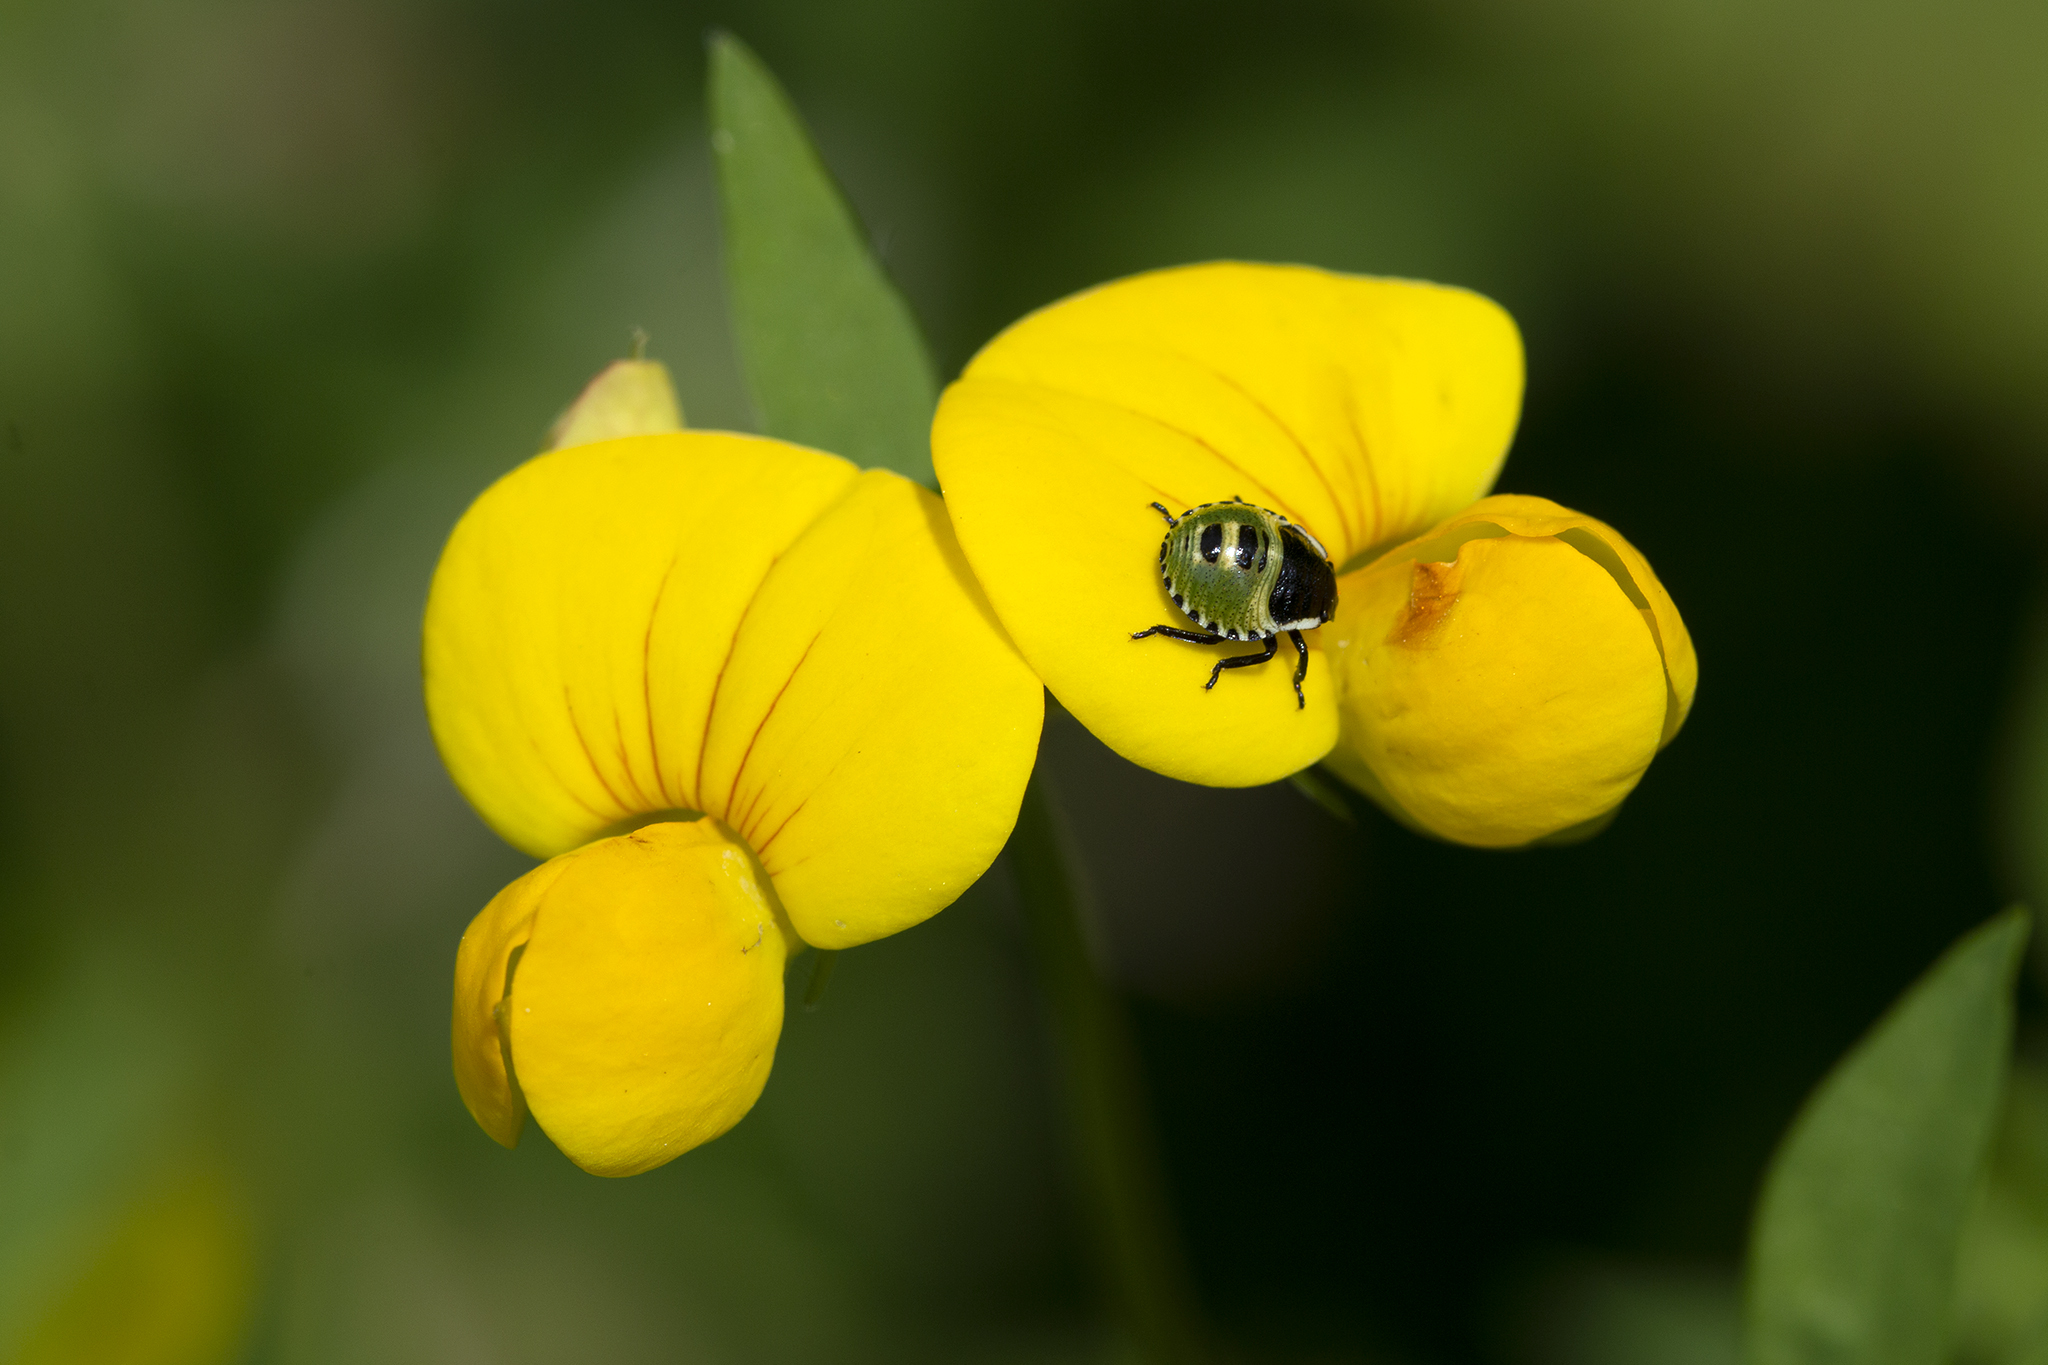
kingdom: Animalia
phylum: Arthropoda
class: Insecta
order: Hemiptera
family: Pentatomidae
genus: Palomena
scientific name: Palomena prasina
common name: Green shieldbug
